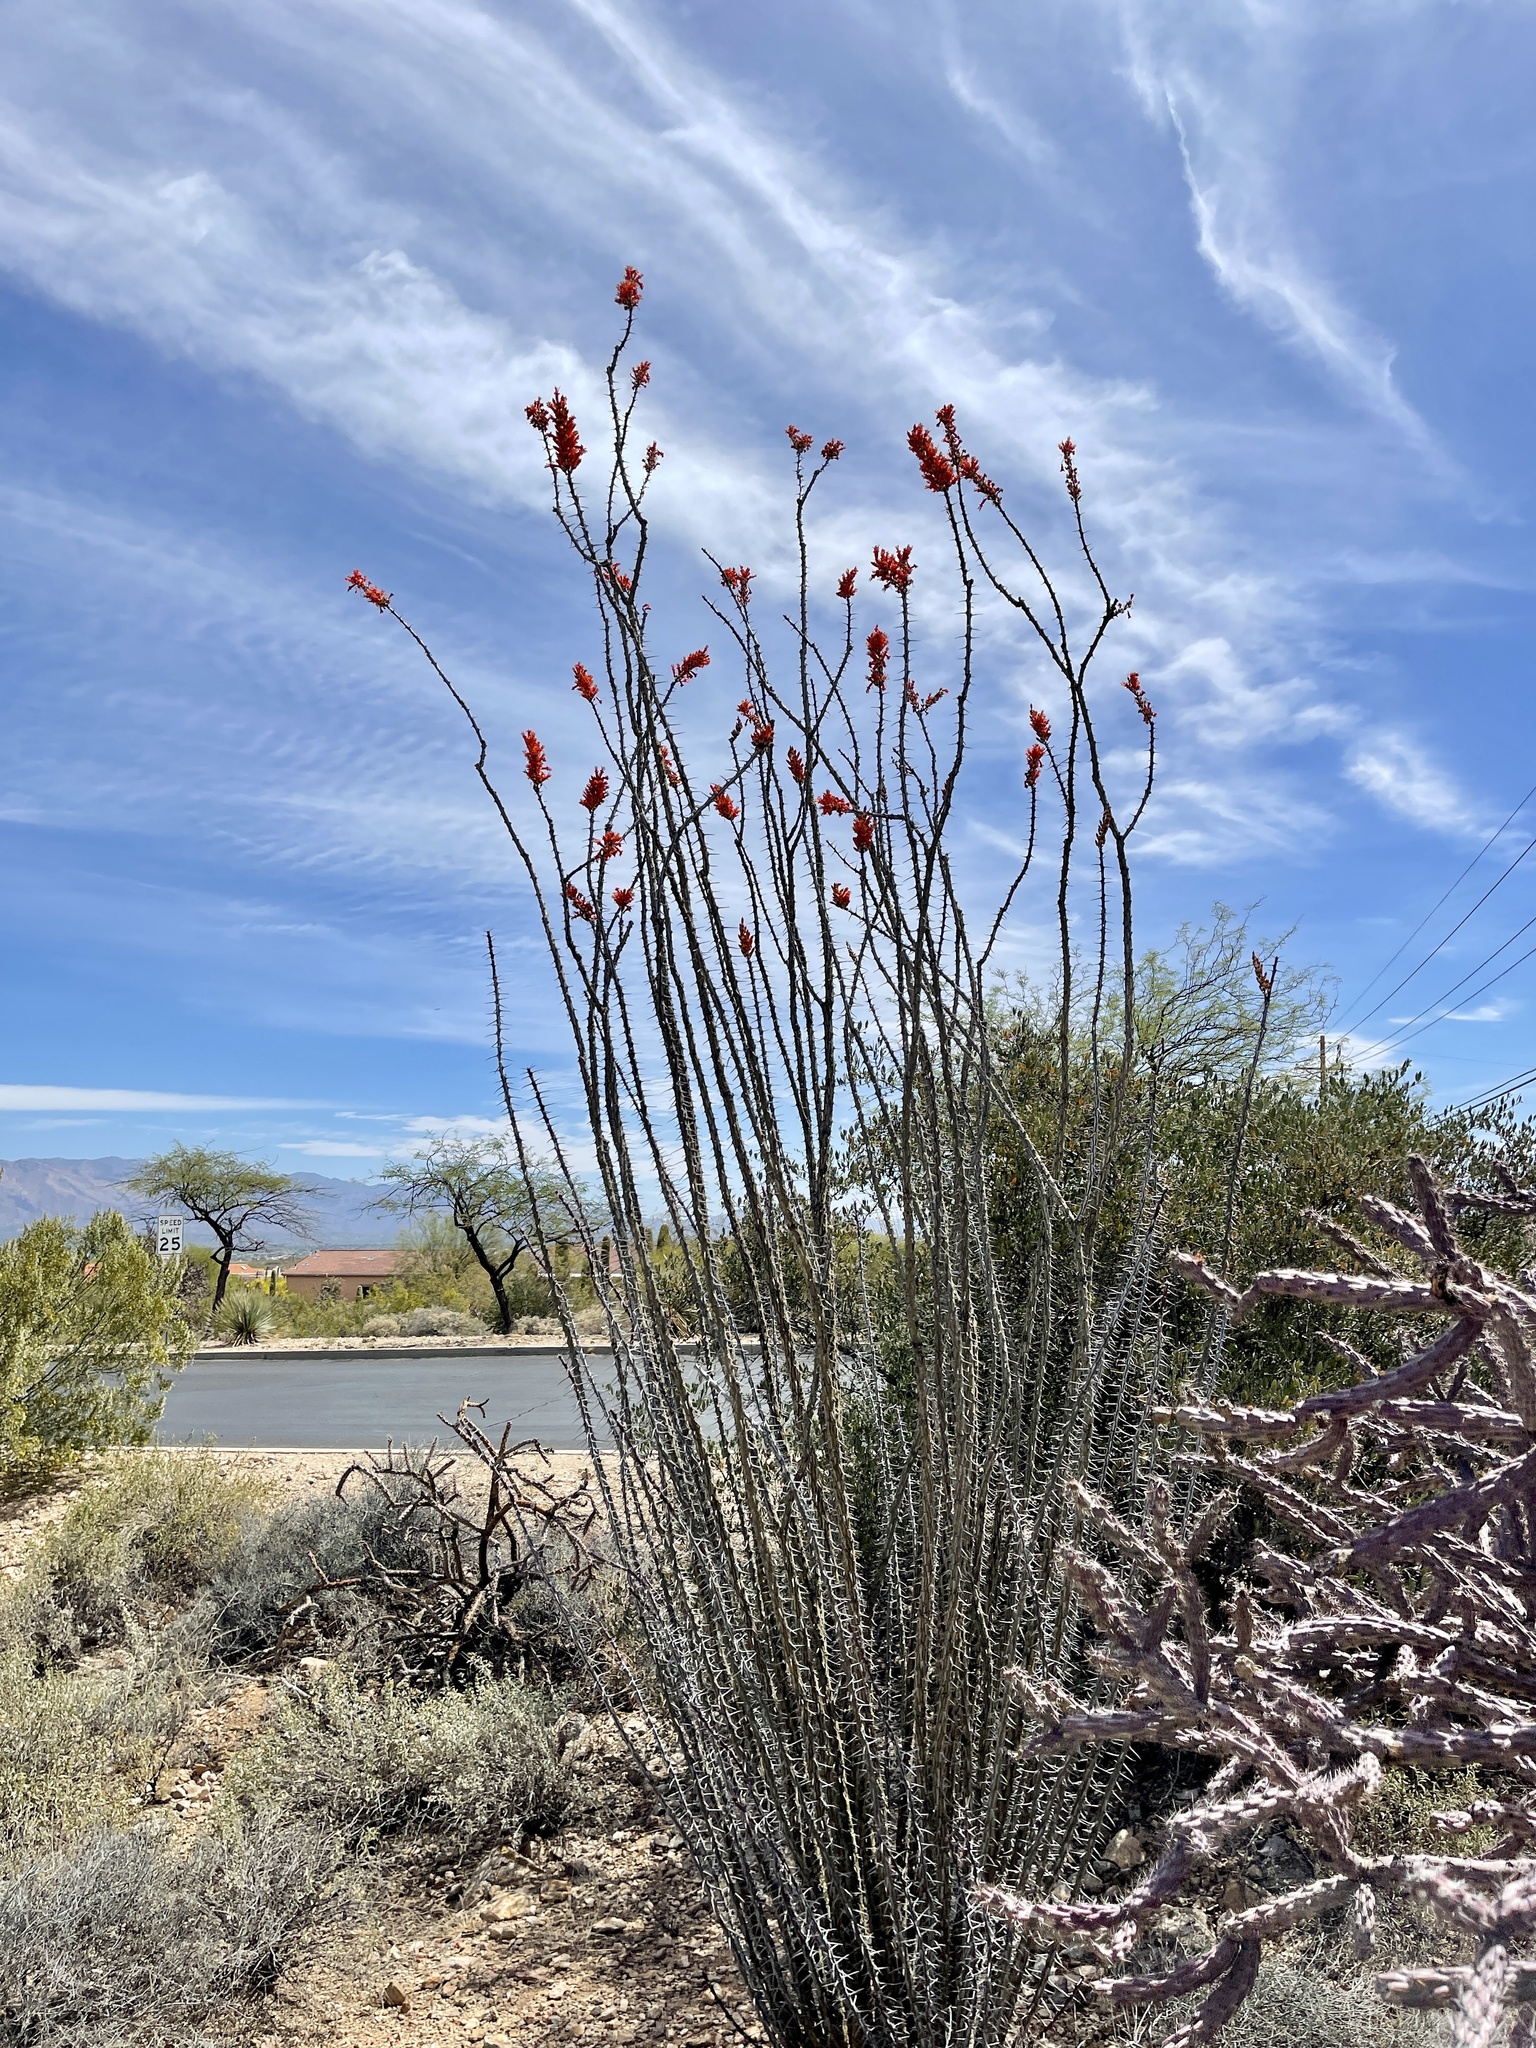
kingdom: Plantae
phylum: Tracheophyta
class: Magnoliopsida
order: Ericales
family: Fouquieriaceae
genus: Fouquieria
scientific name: Fouquieria splendens
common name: Vine-cactus
